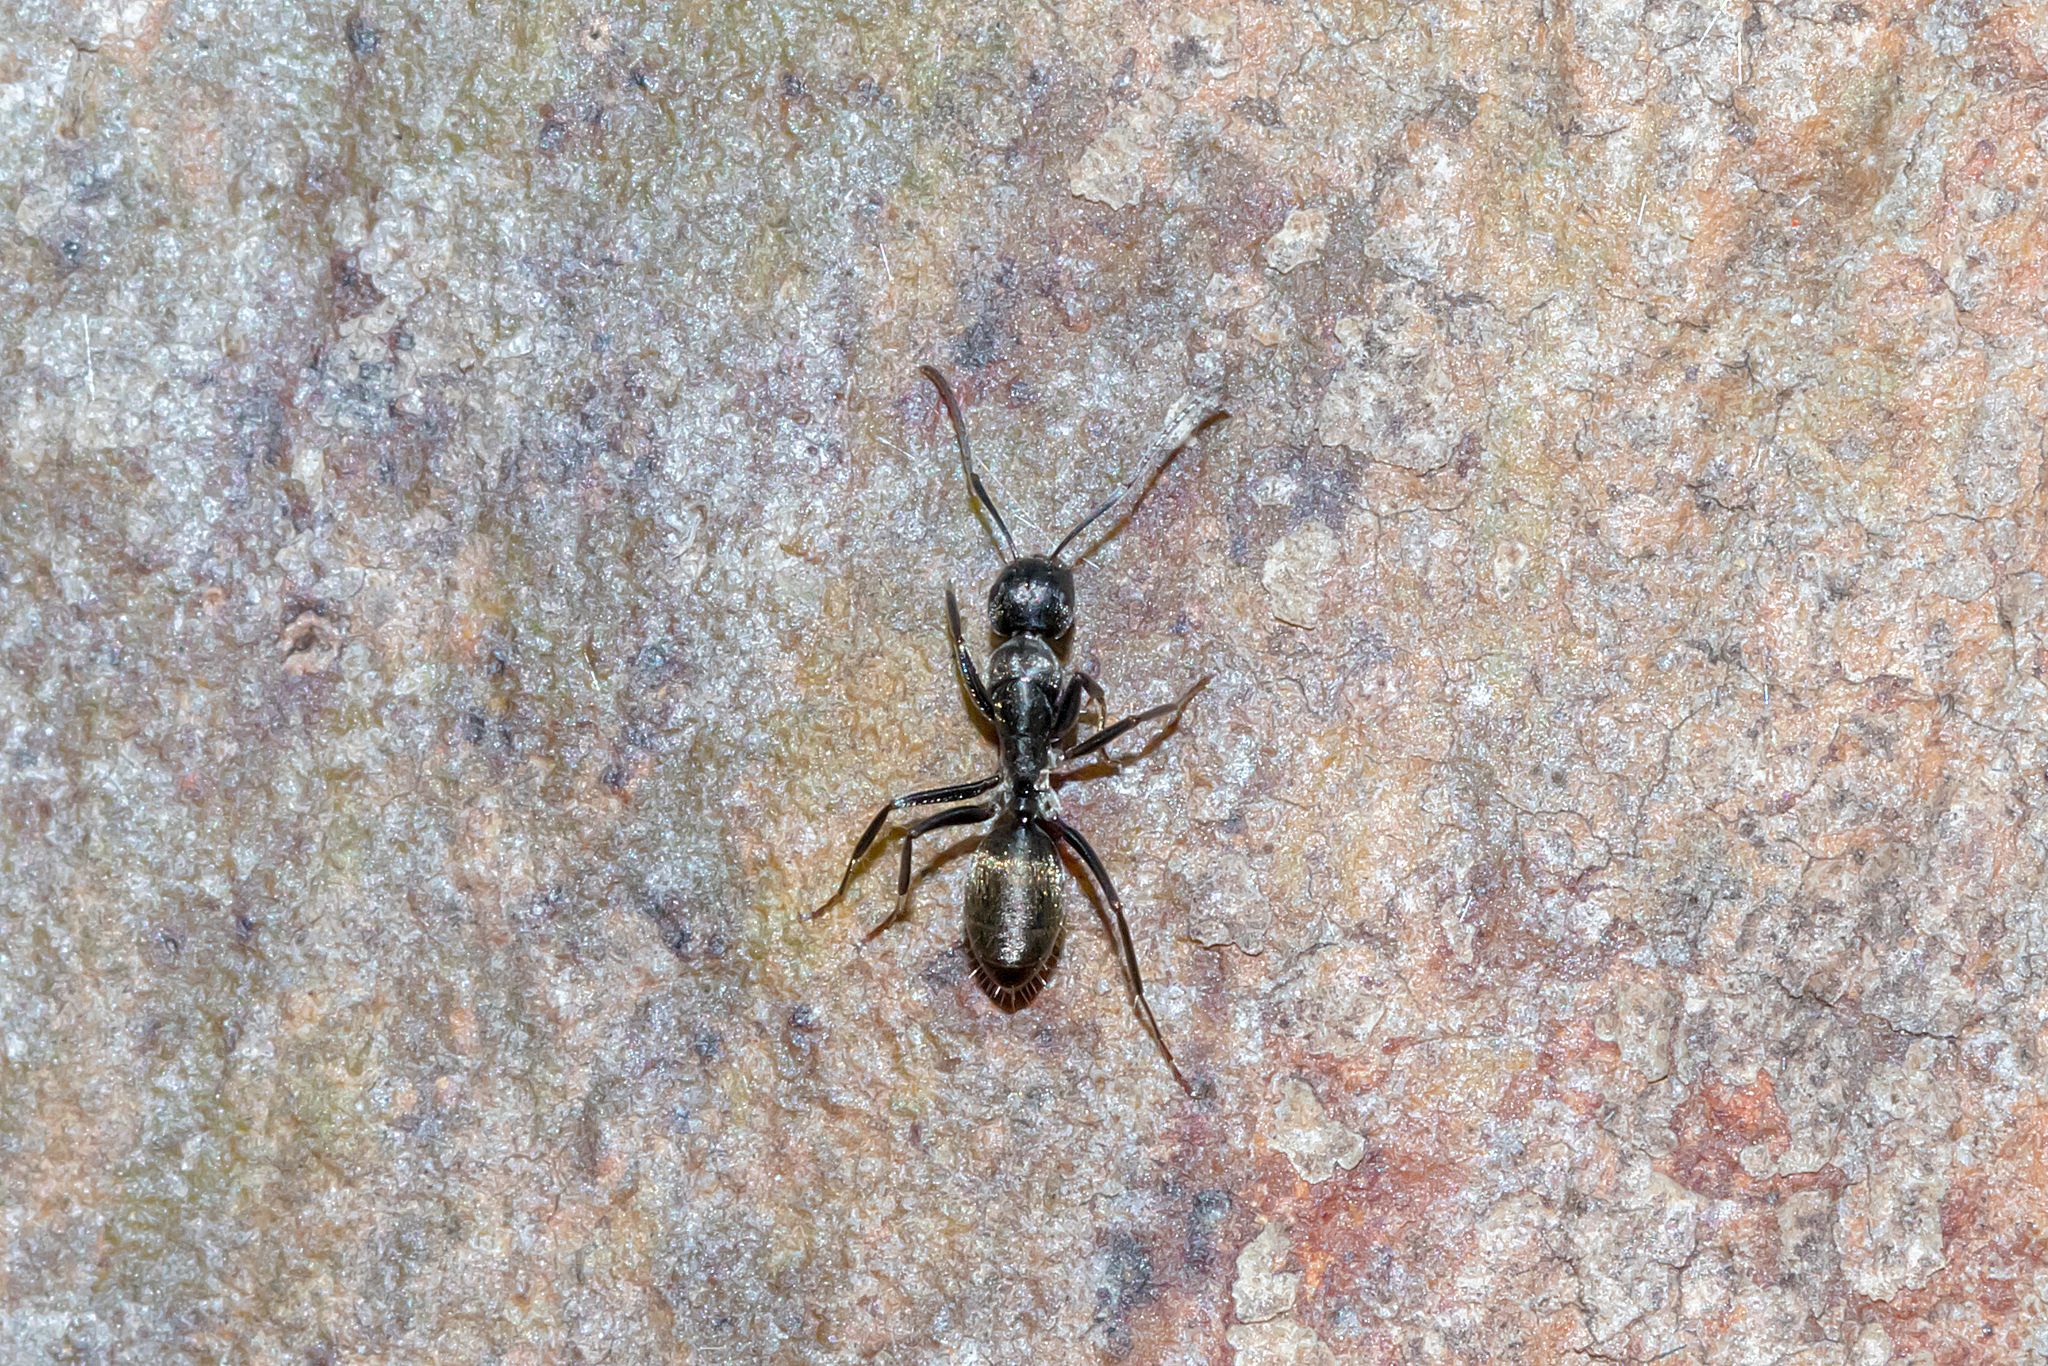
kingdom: Animalia
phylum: Arthropoda
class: Insecta
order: Hymenoptera
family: Formicidae
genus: Camponotus
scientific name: Camponotus aeneopilosus
